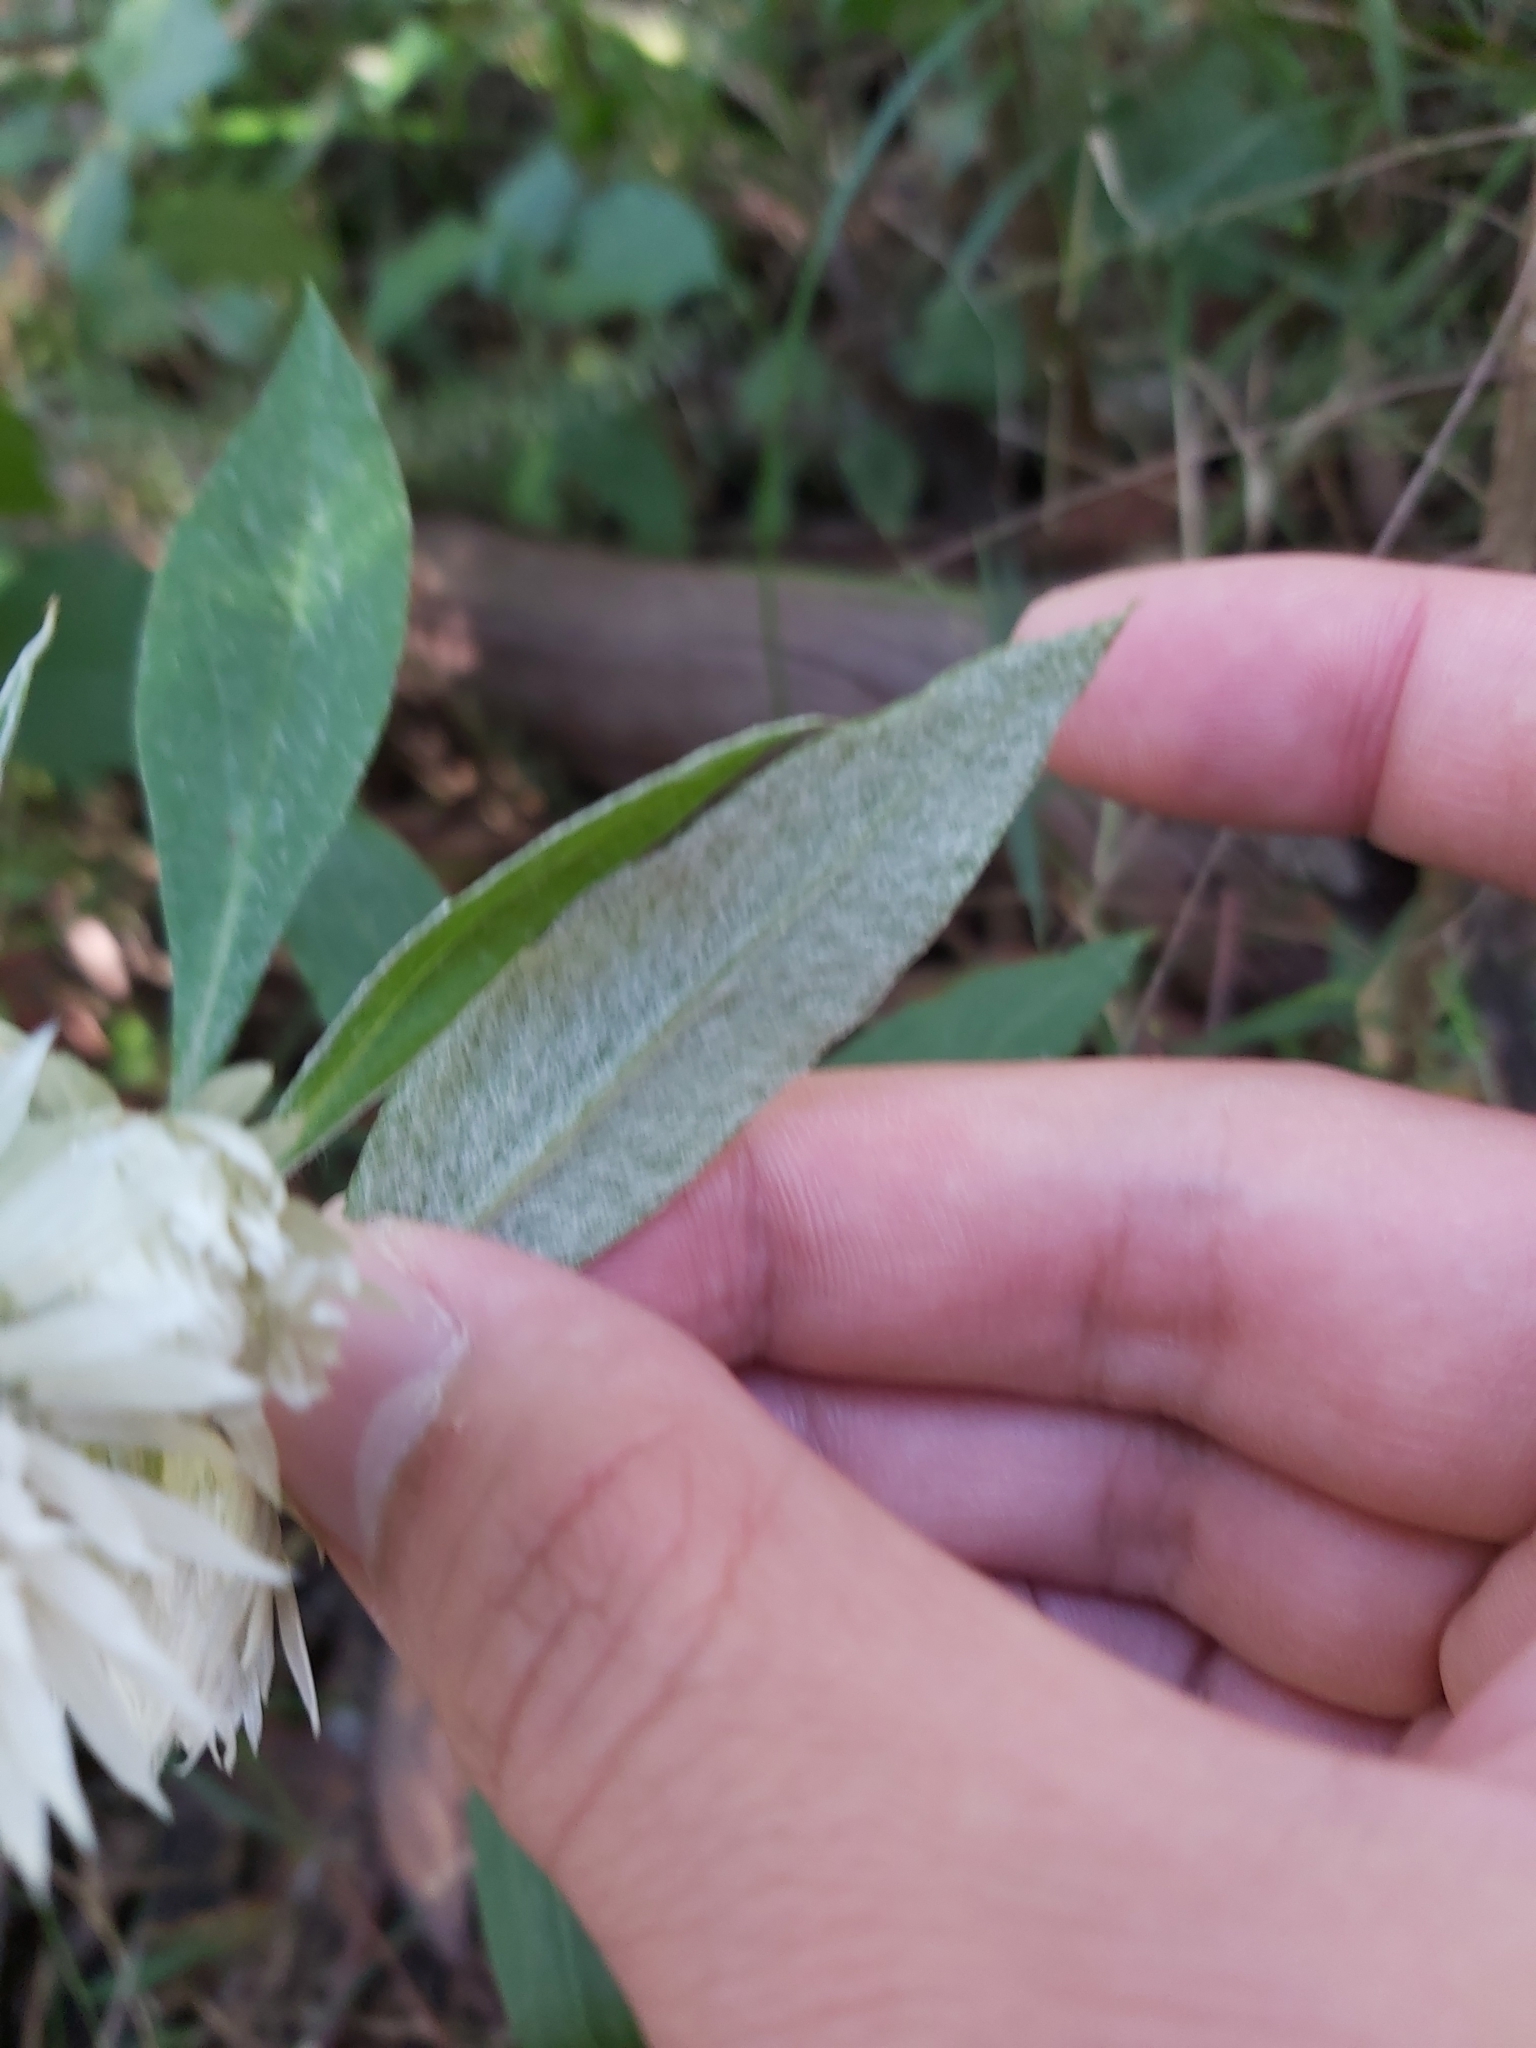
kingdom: Plantae
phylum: Tracheophyta
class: Magnoliopsida
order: Asterales
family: Asteraceae
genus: Leucozoma
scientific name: Leucozoma elatum
